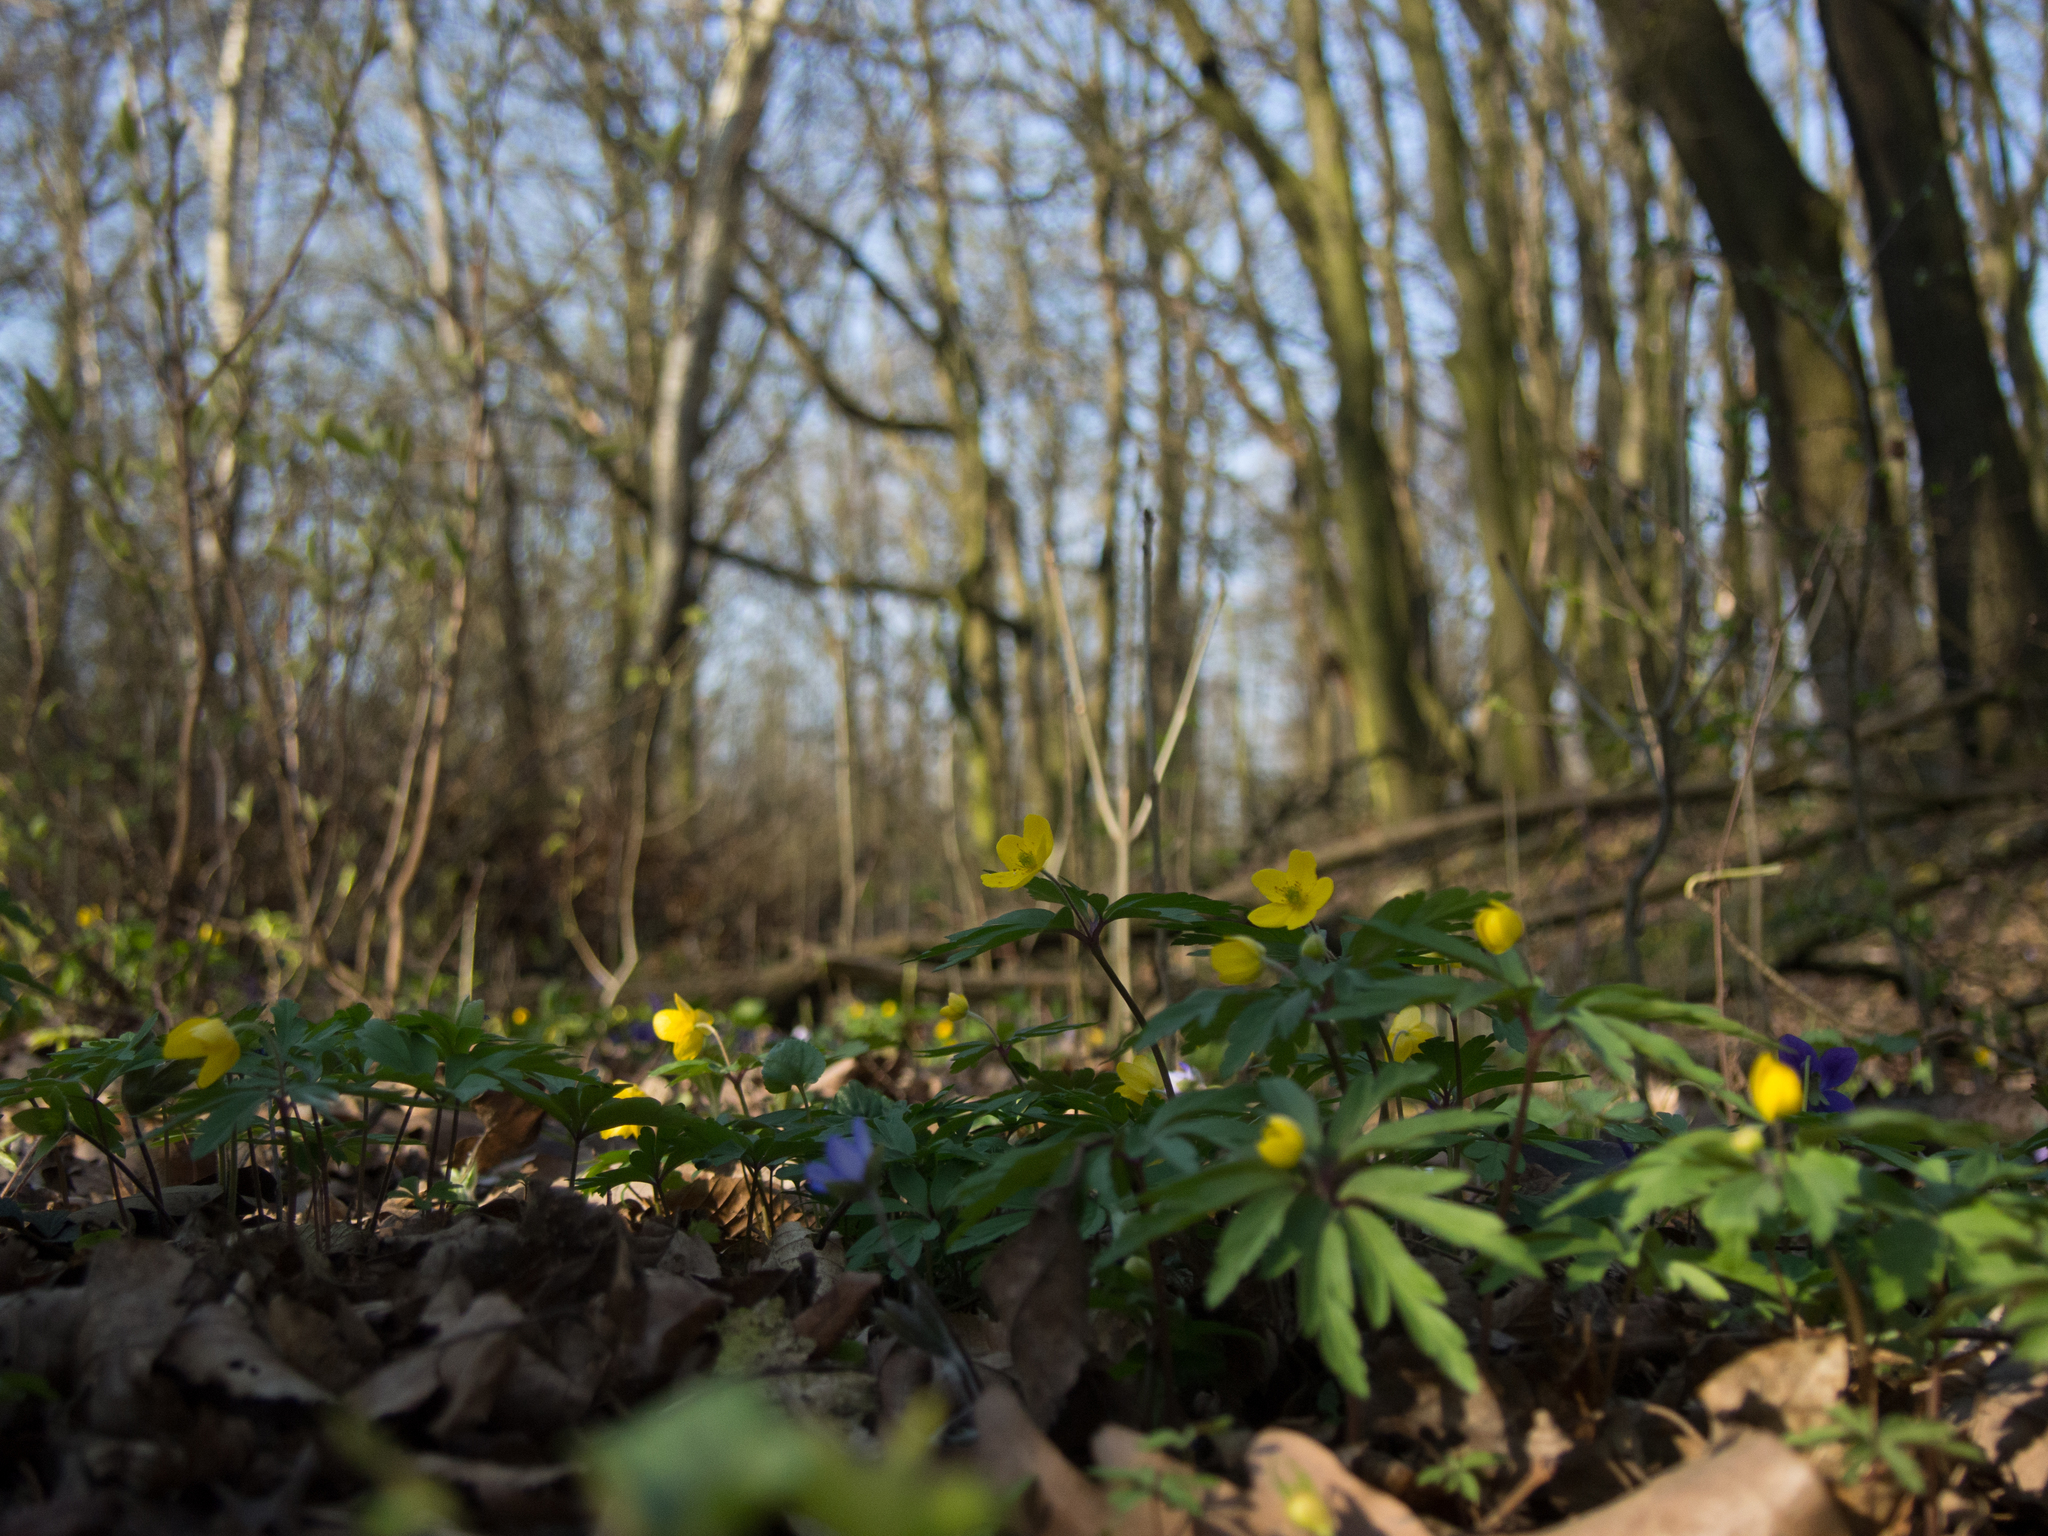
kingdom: Plantae
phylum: Tracheophyta
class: Magnoliopsida
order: Ranunculales
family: Ranunculaceae
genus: Anemone
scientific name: Anemone ranunculoides
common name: Yellow anemone
